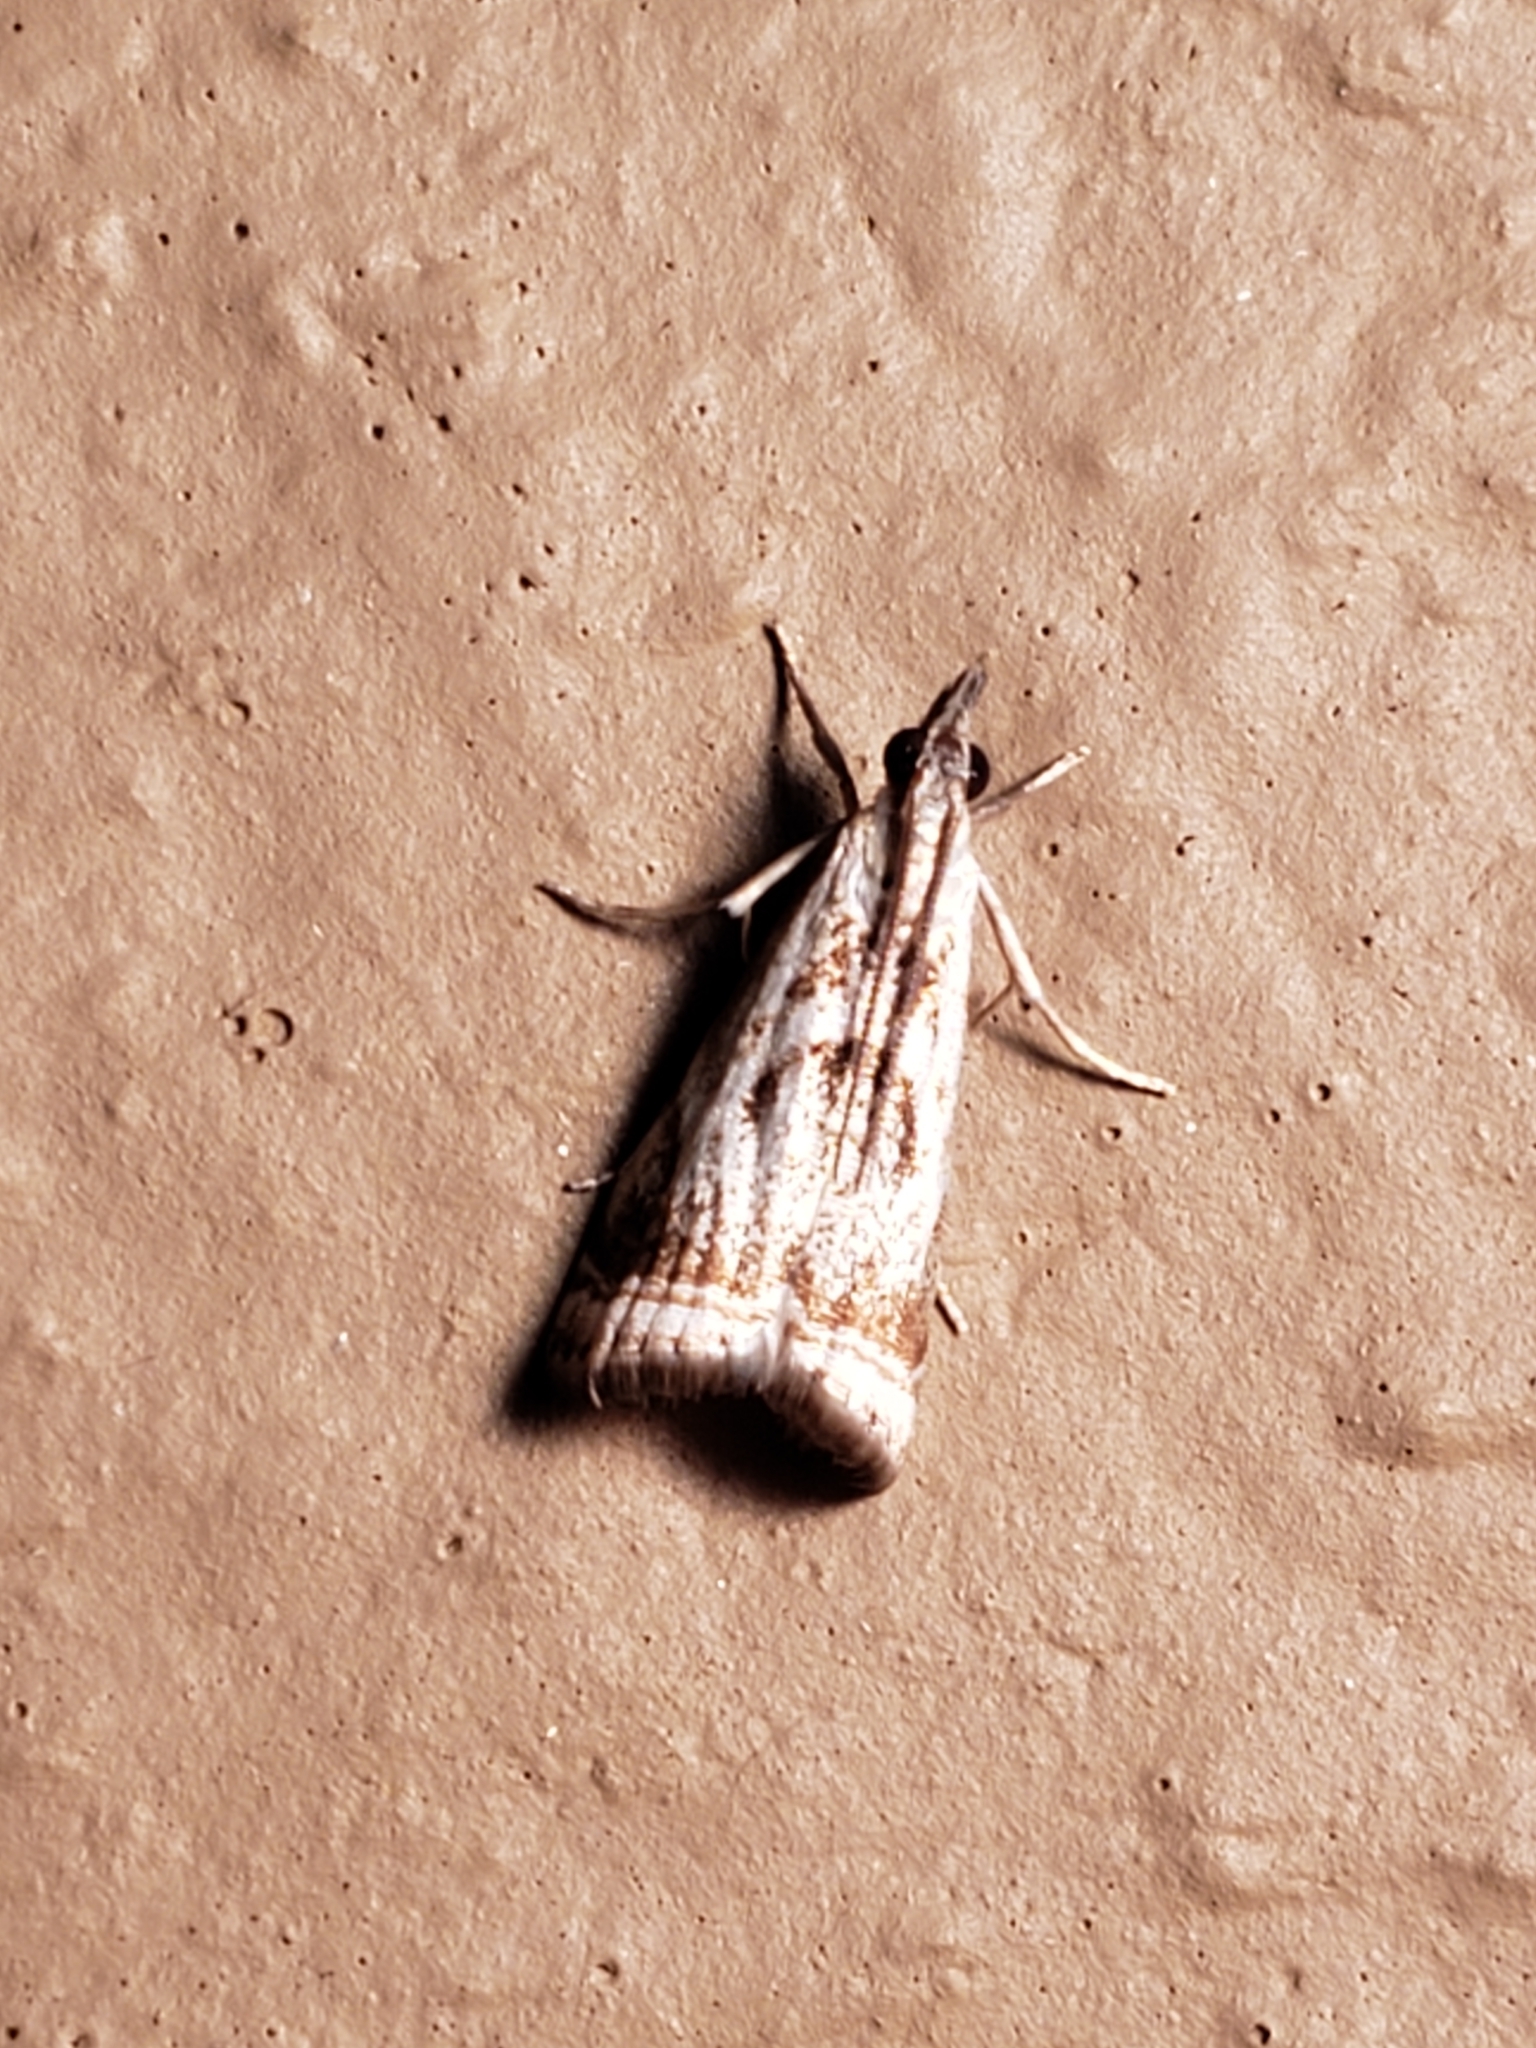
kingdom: Animalia
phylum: Arthropoda
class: Insecta
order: Lepidoptera
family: Crambidae
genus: Microcrambus
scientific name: Microcrambus elegans
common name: Elegant grass-veneer
